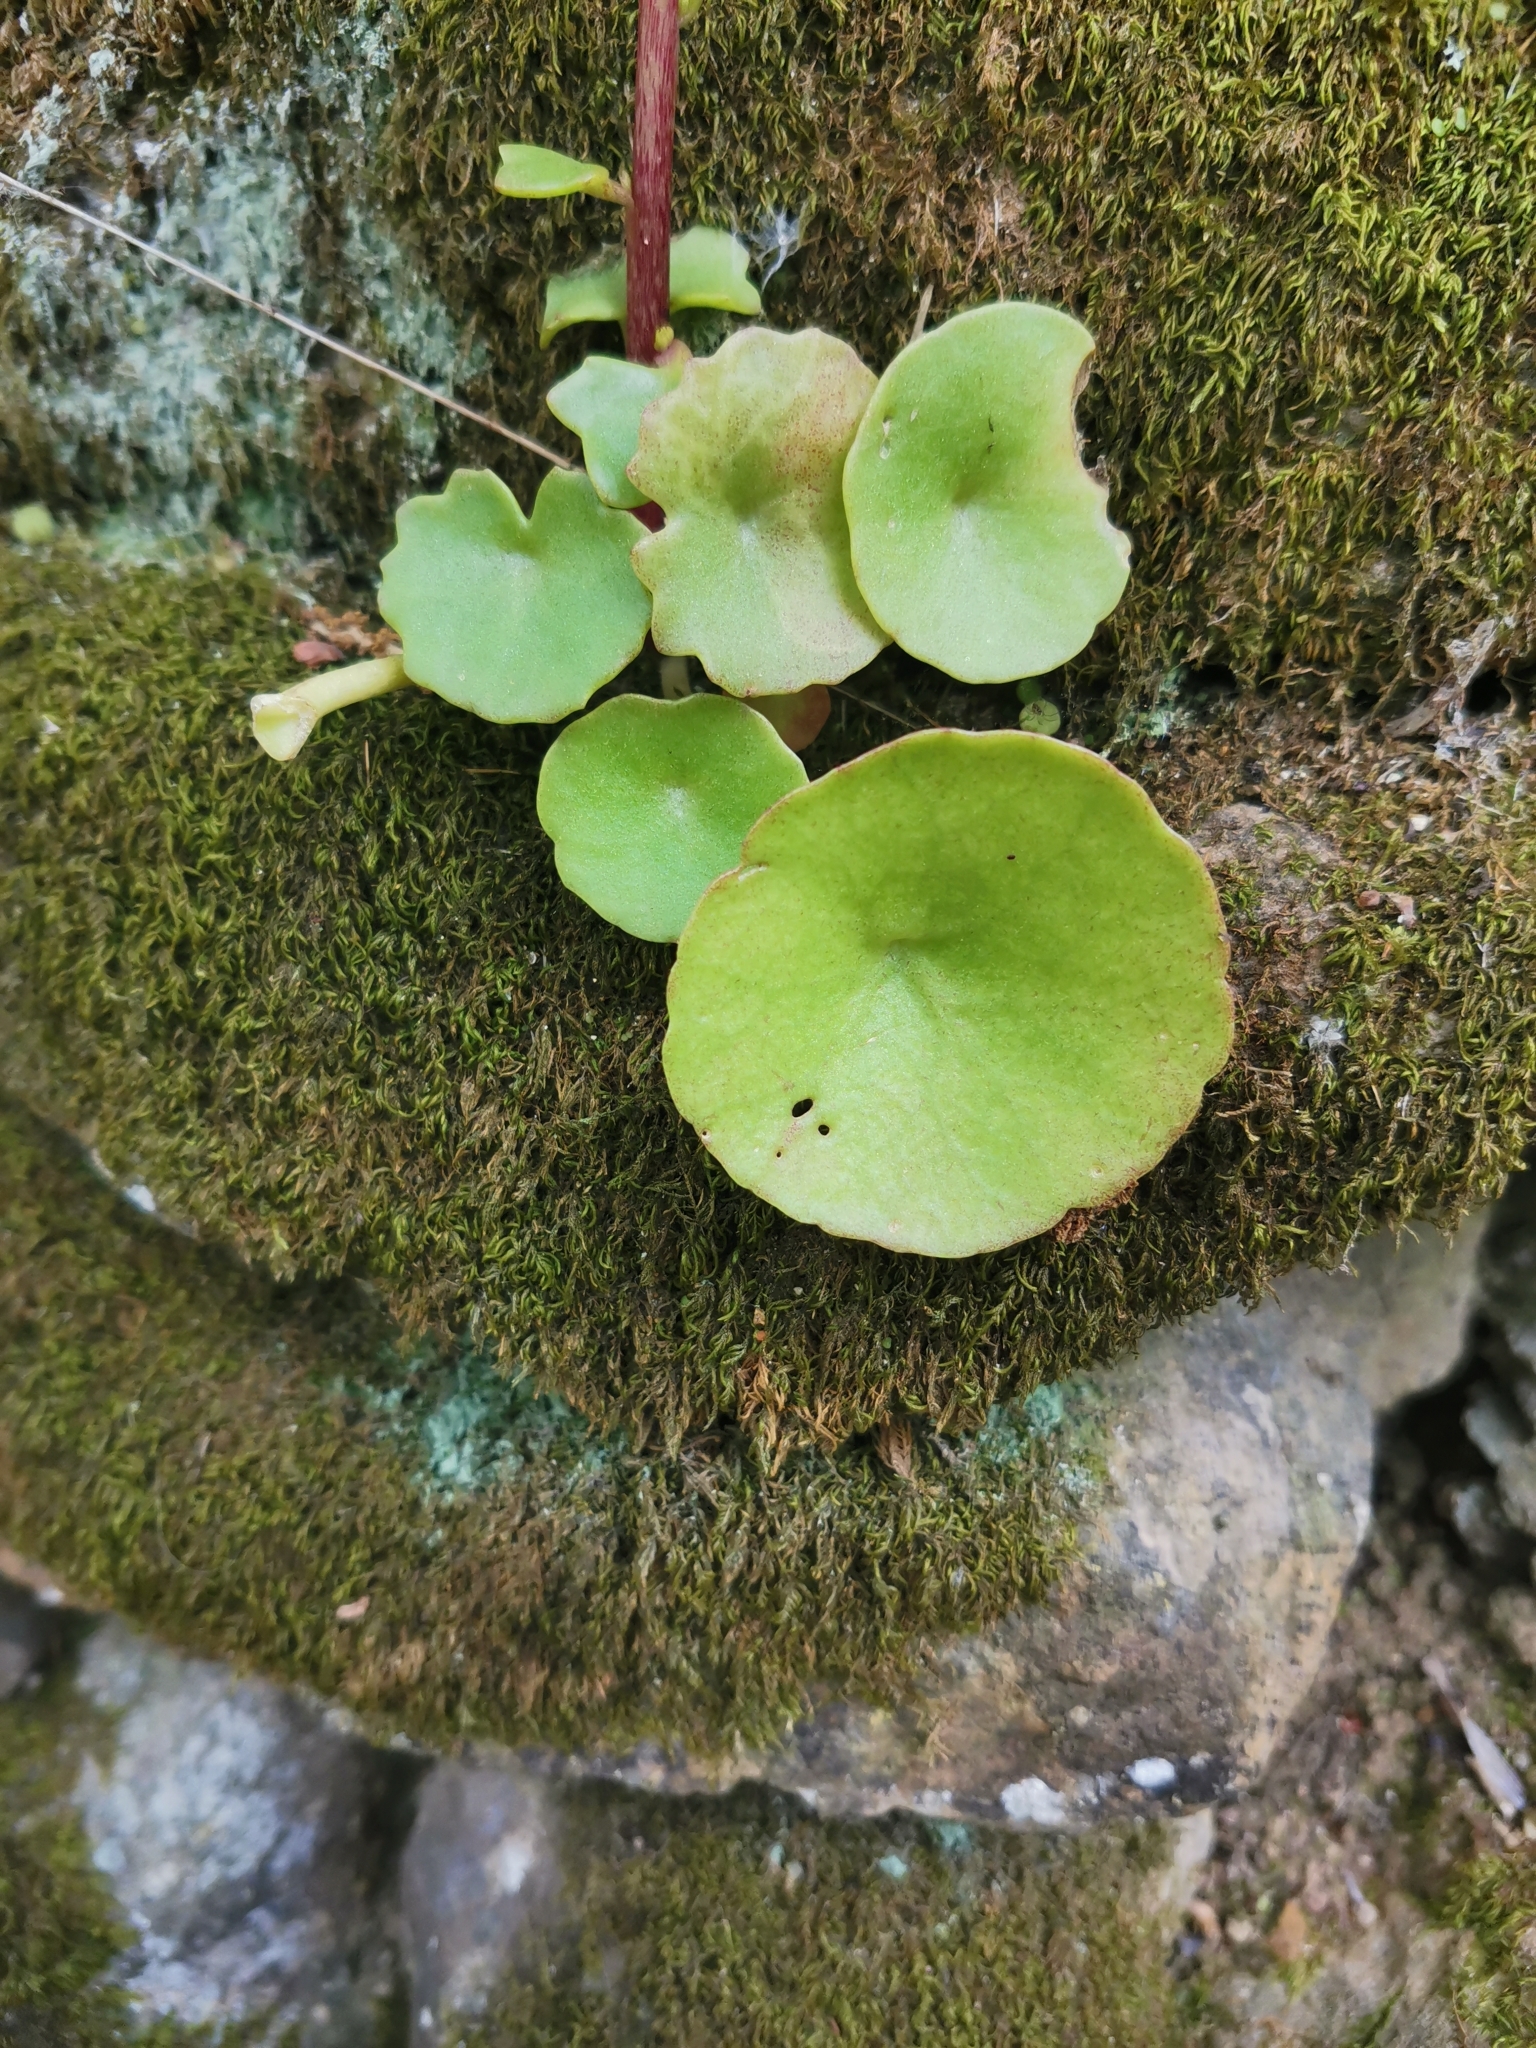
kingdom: Plantae
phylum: Tracheophyta
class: Magnoliopsida
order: Saxifragales
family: Crassulaceae
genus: Umbilicus
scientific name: Umbilicus rupestris
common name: Navelwort
